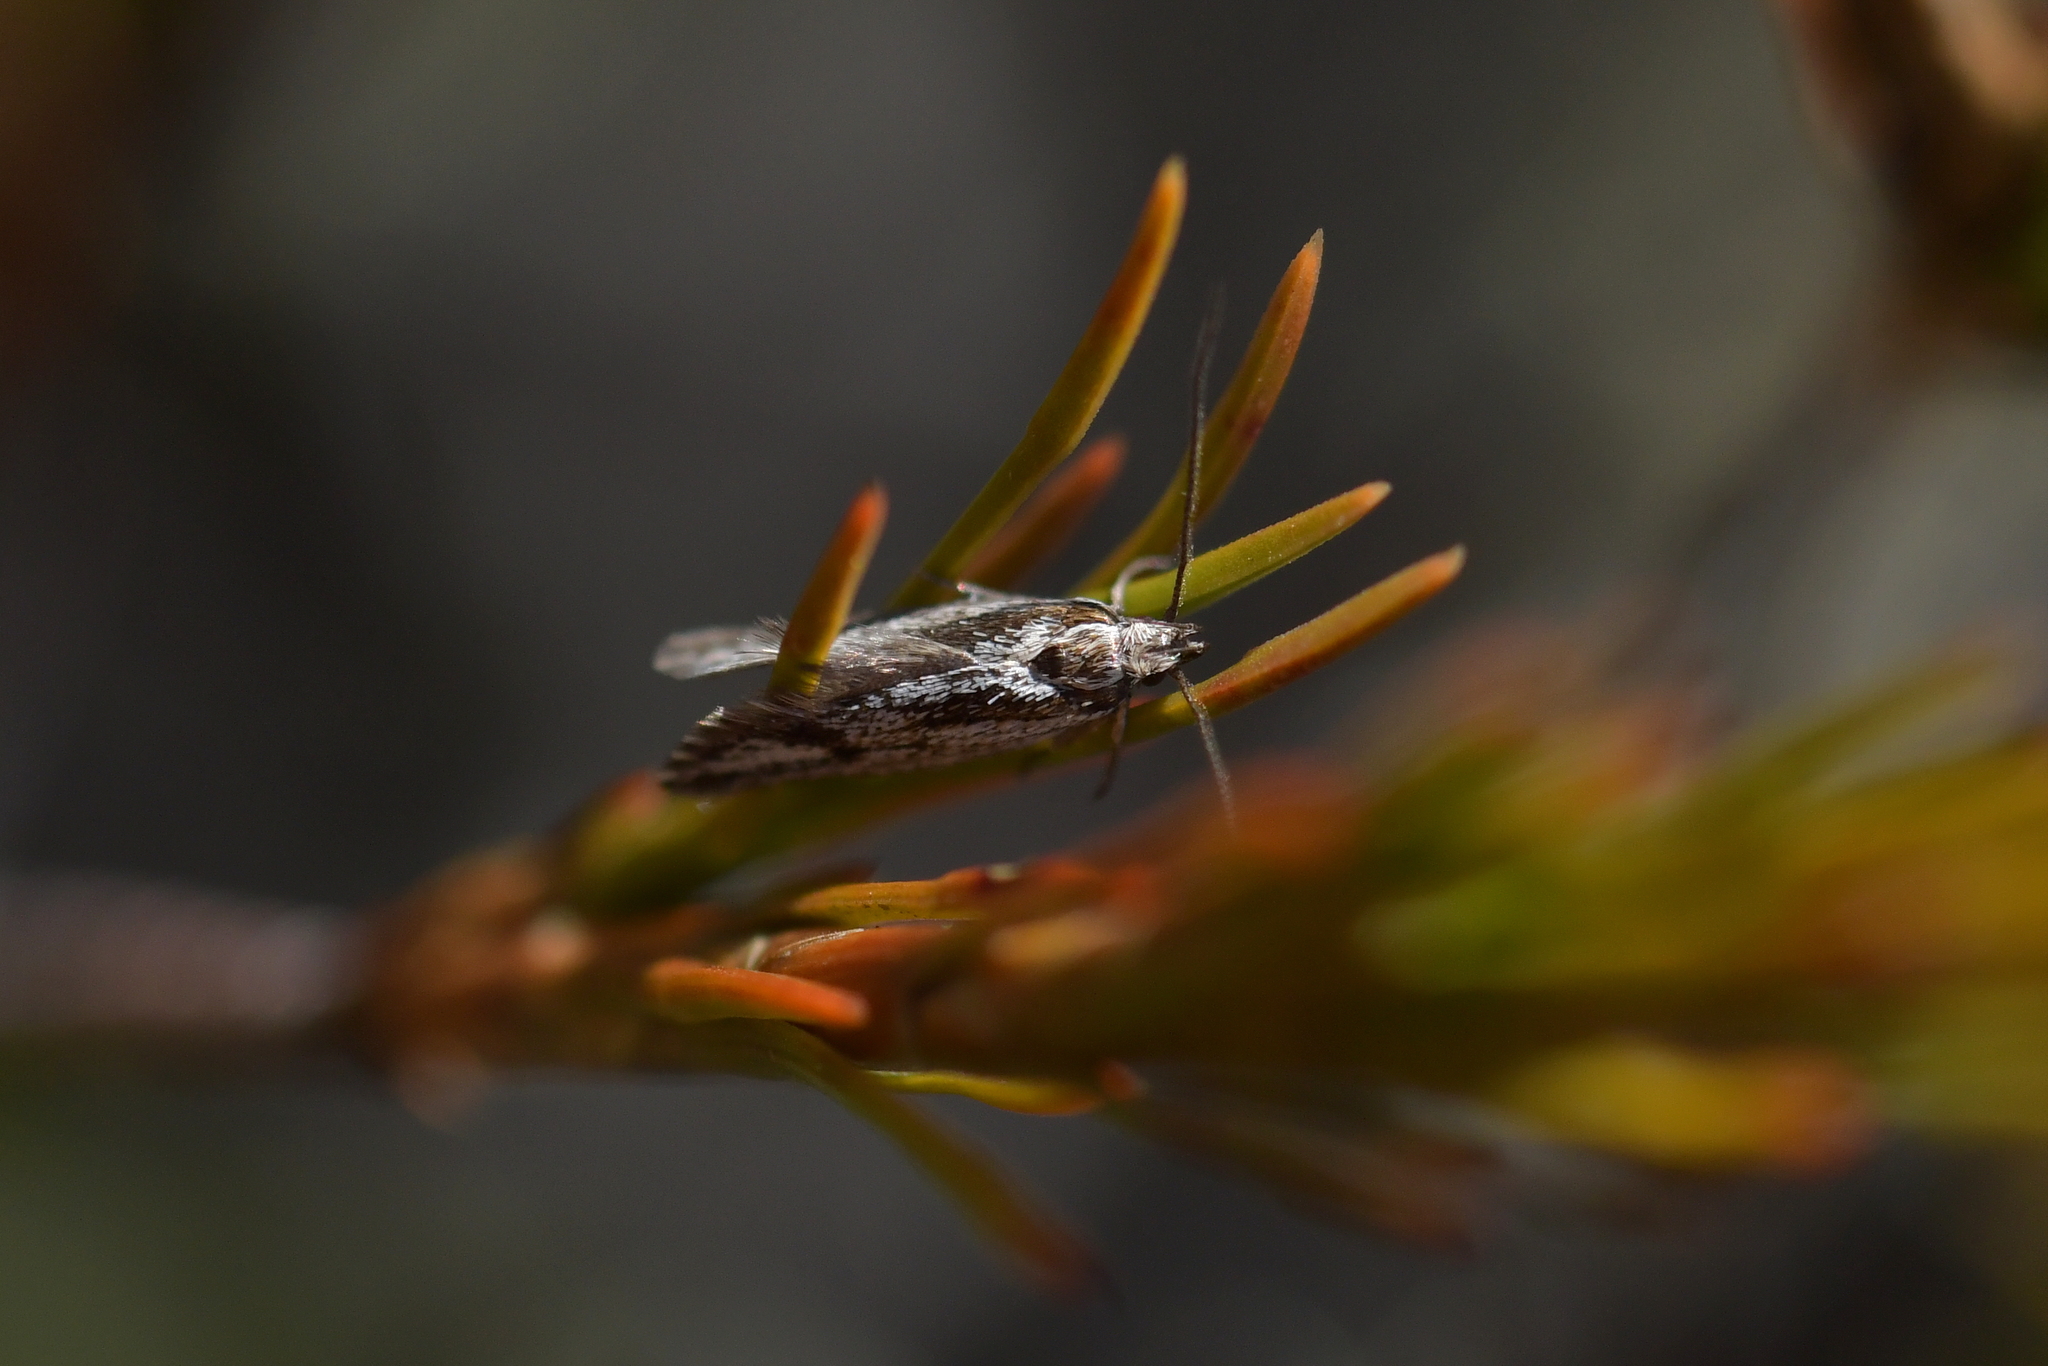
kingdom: Animalia
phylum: Arthropoda
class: Insecta
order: Lepidoptera
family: Oecophoridae
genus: Prepalla
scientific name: Prepalla
